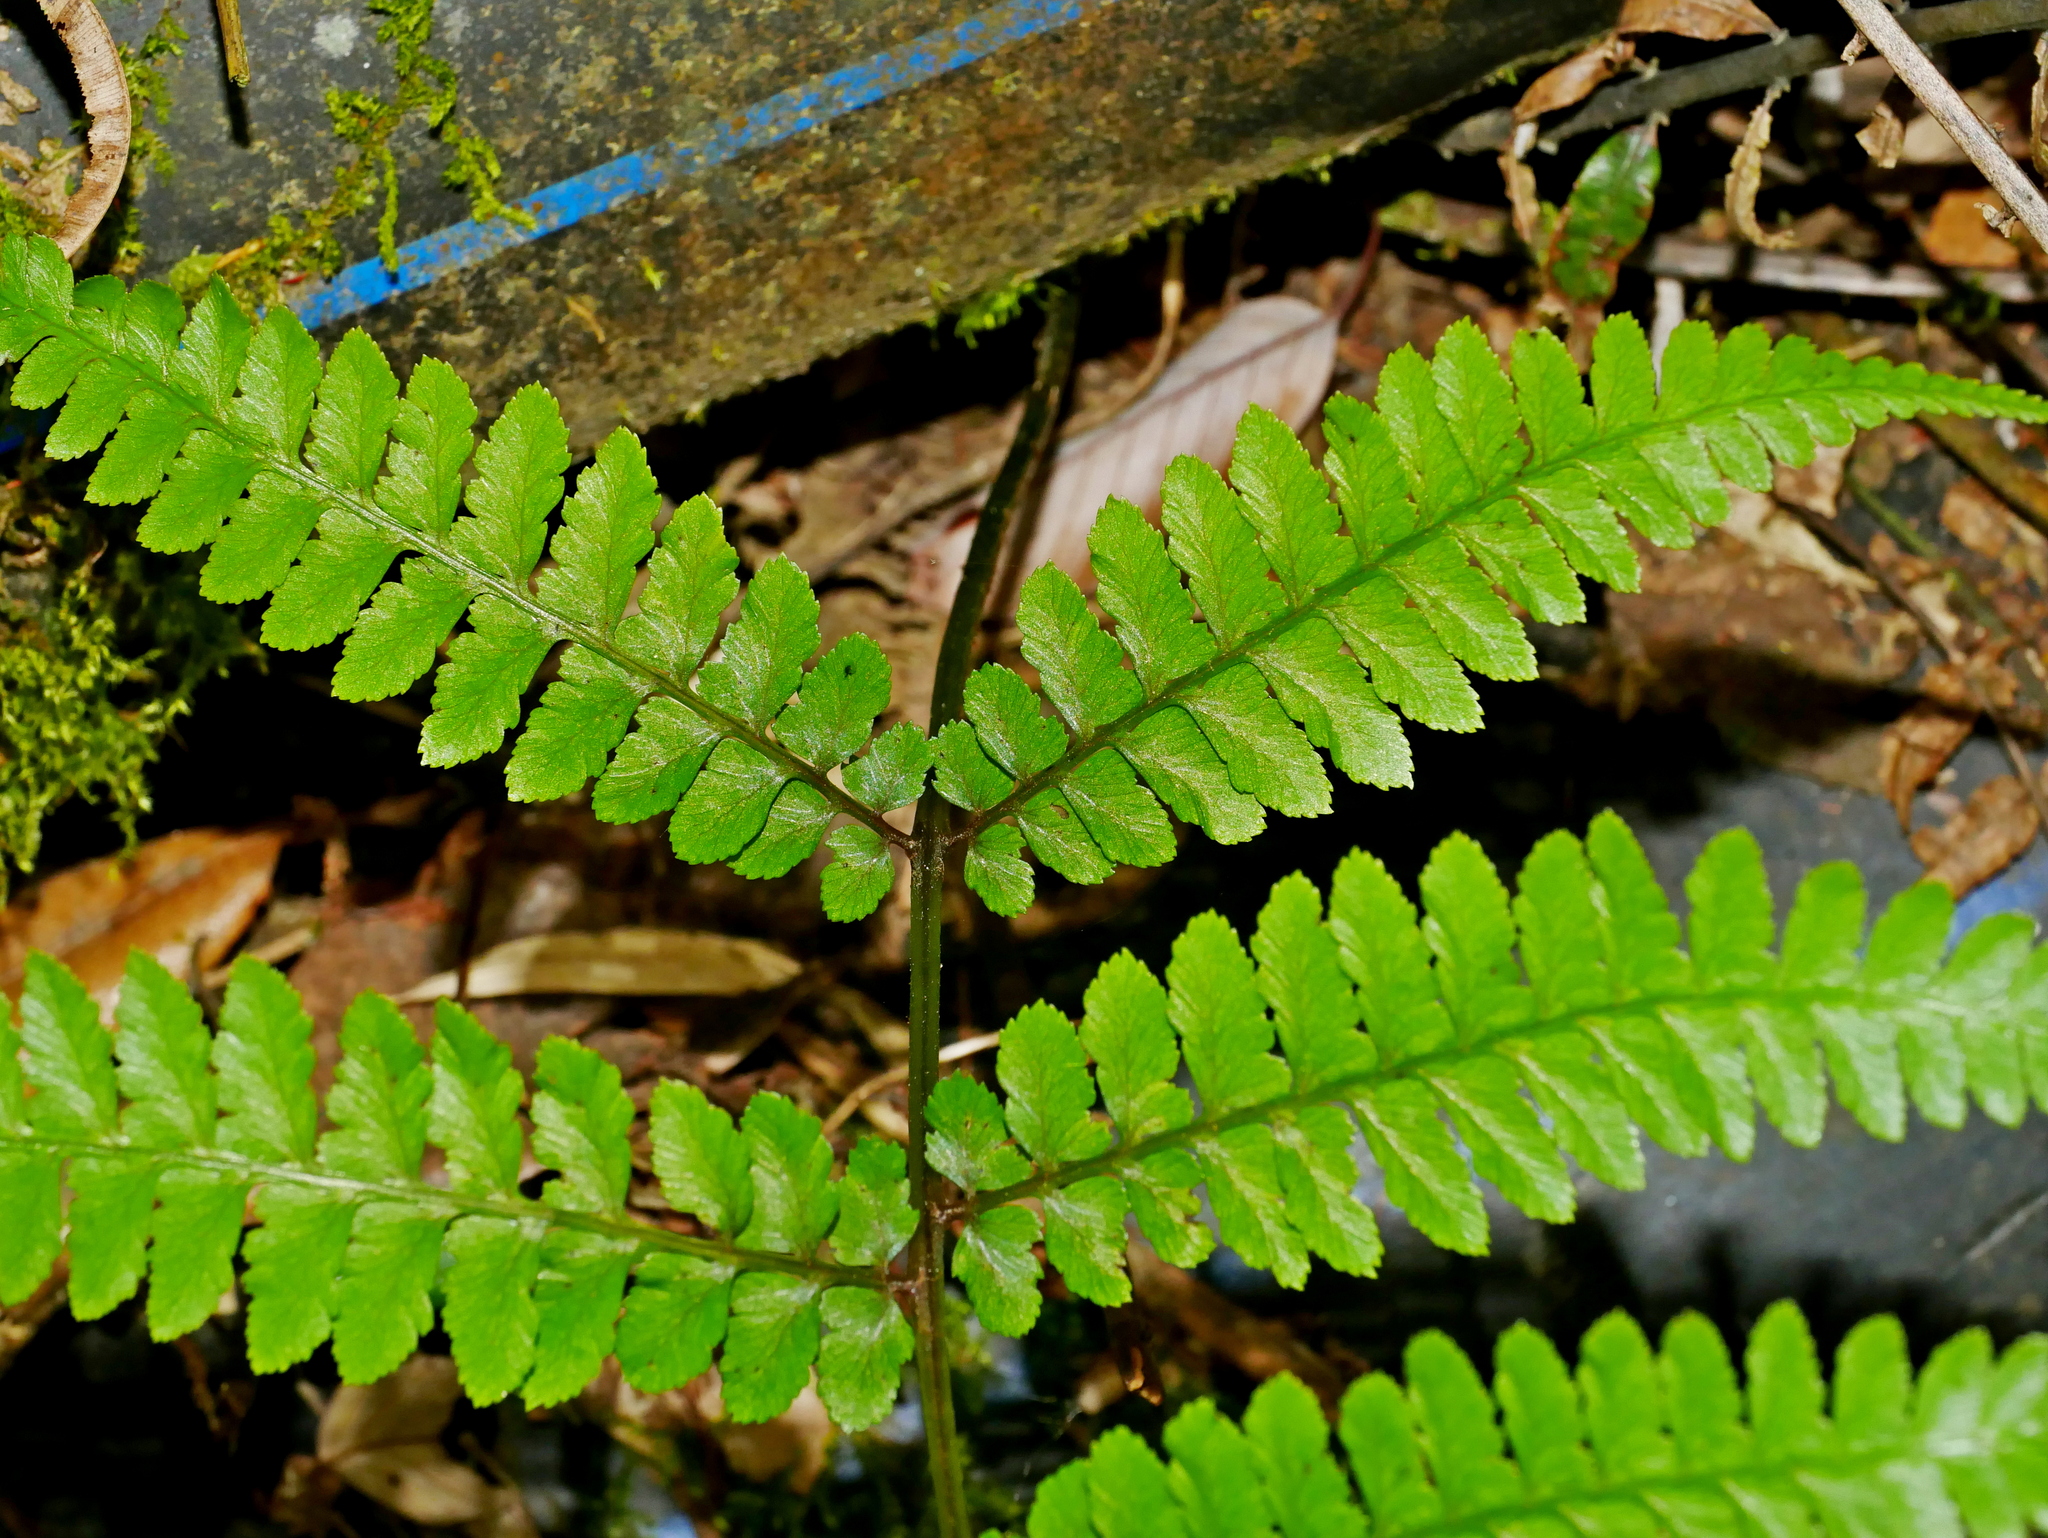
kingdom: Plantae
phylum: Tracheophyta
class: Polypodiopsida
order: Polypodiales
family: Athyriaceae
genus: Athyrium
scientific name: Athyrium arisanense
